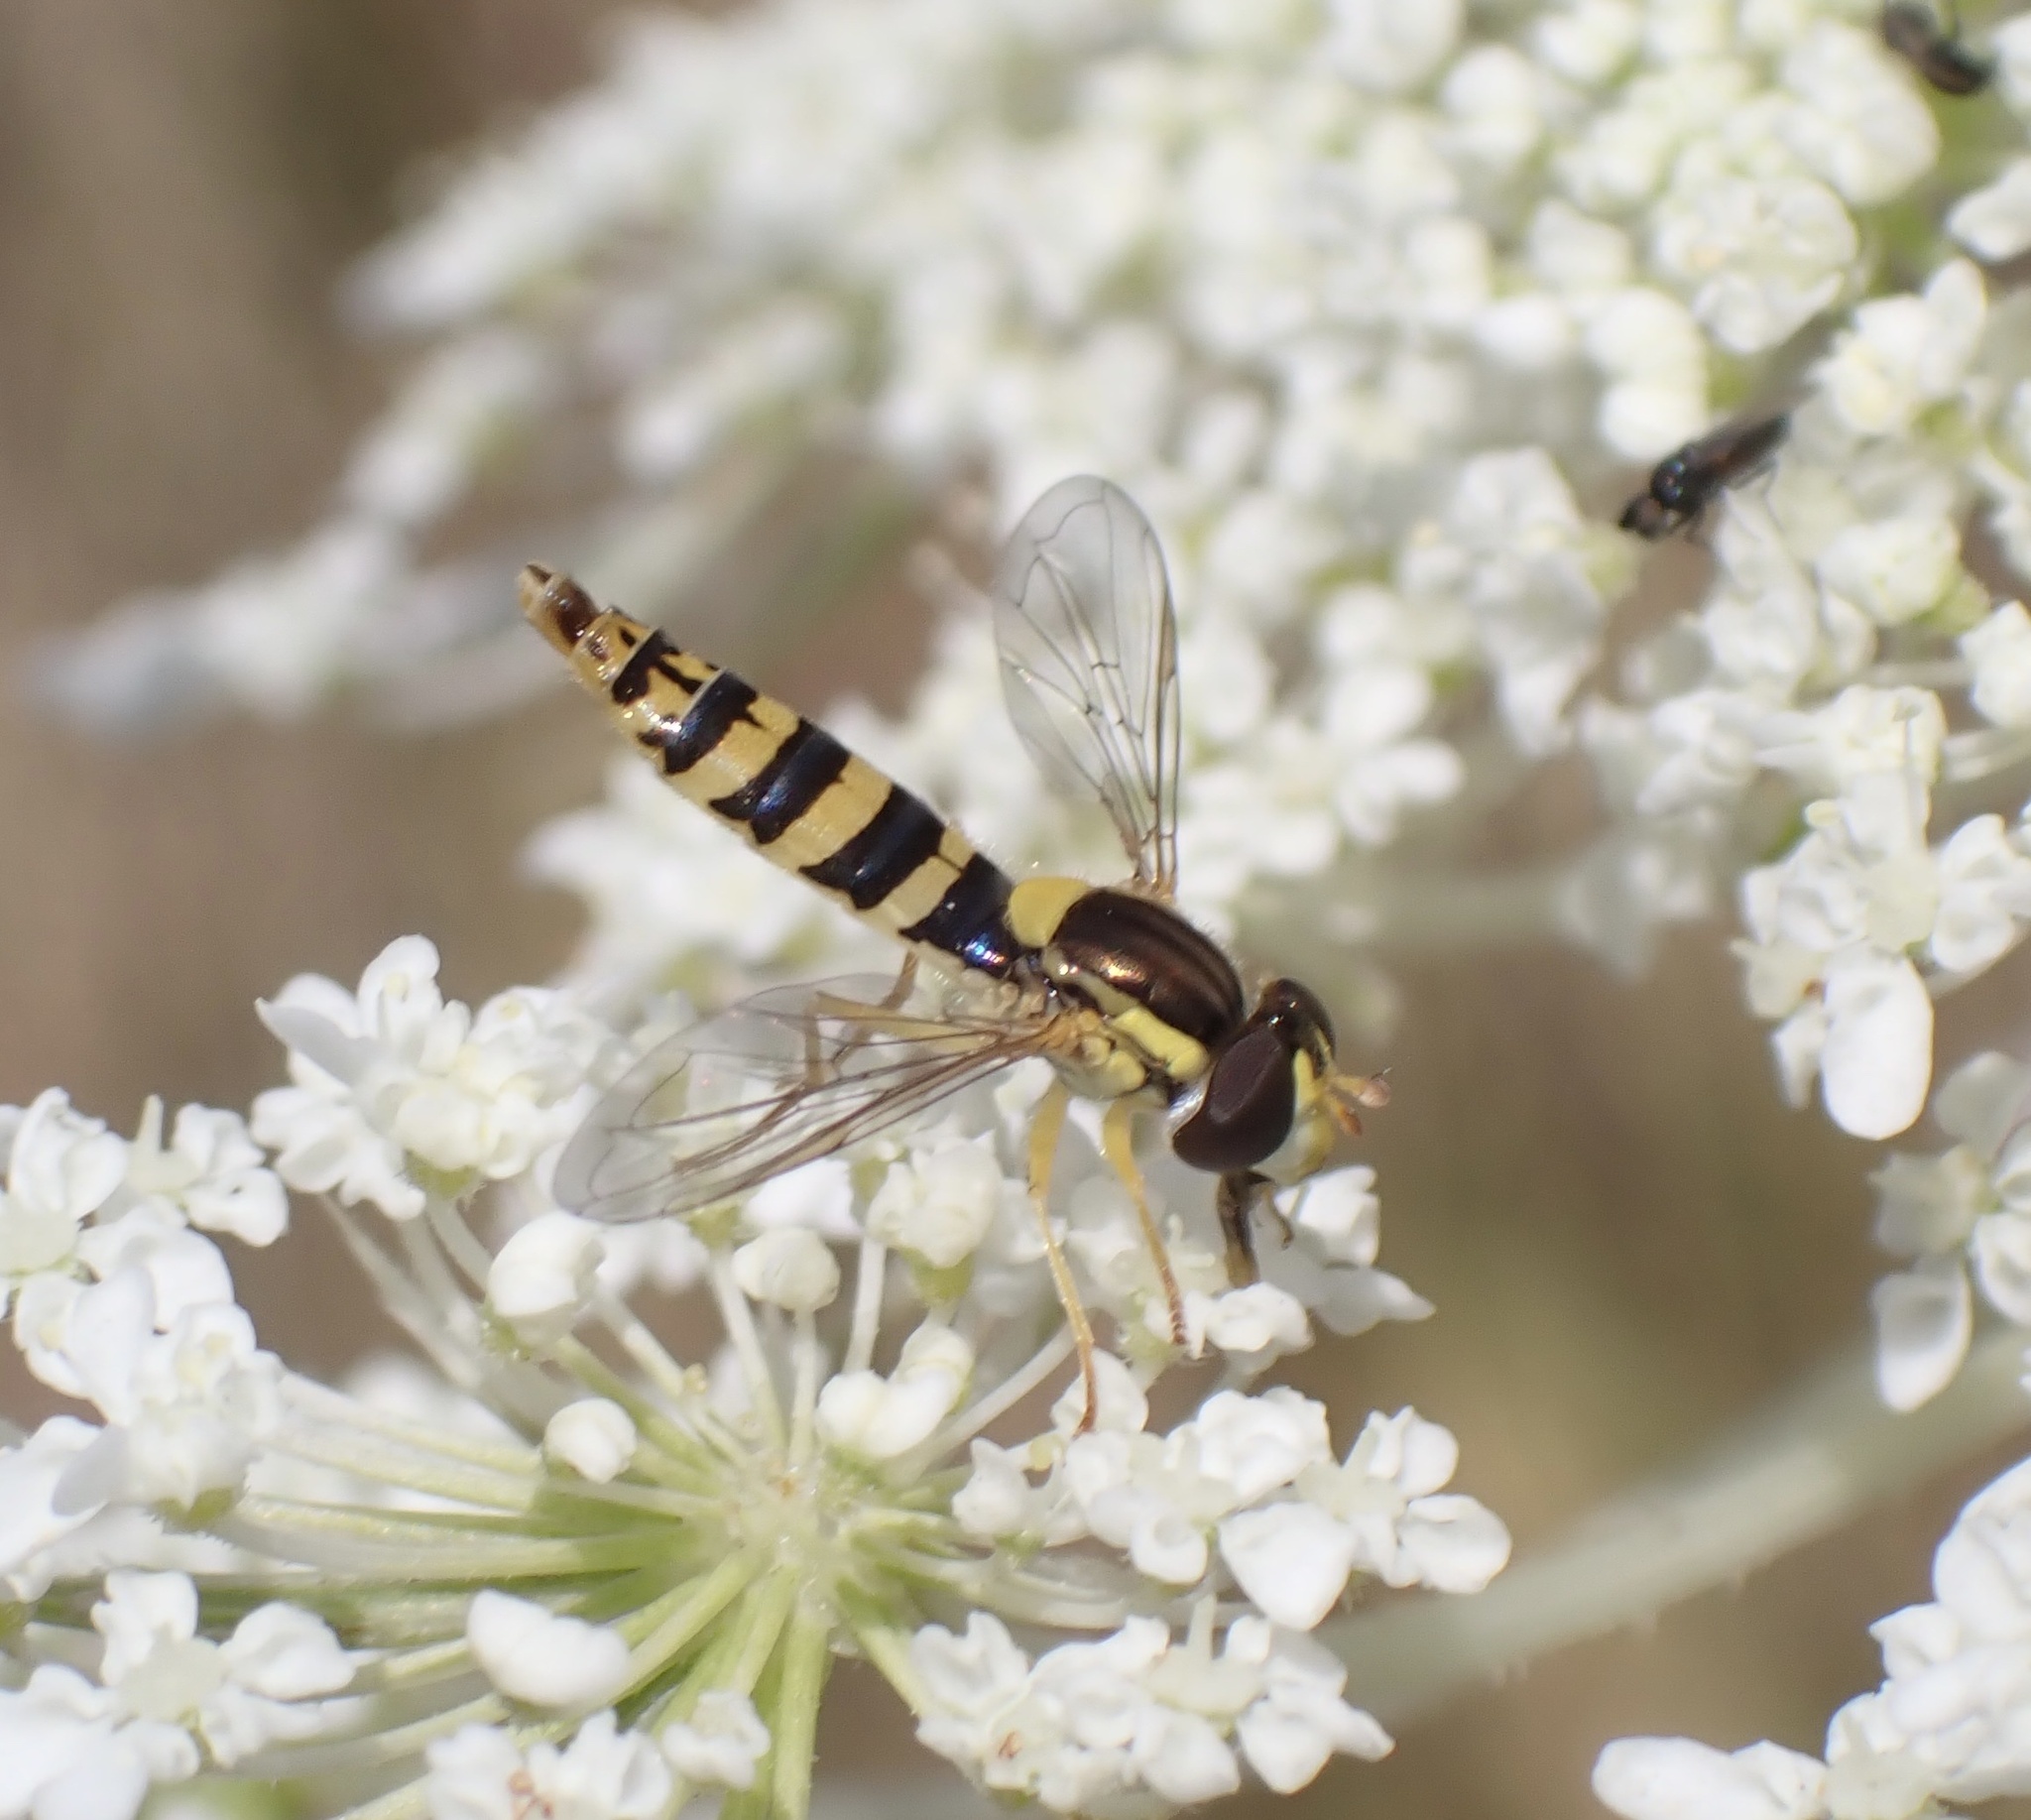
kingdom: Animalia
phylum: Arthropoda
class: Insecta
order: Diptera
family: Syrphidae
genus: Sphaerophoria
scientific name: Sphaerophoria
